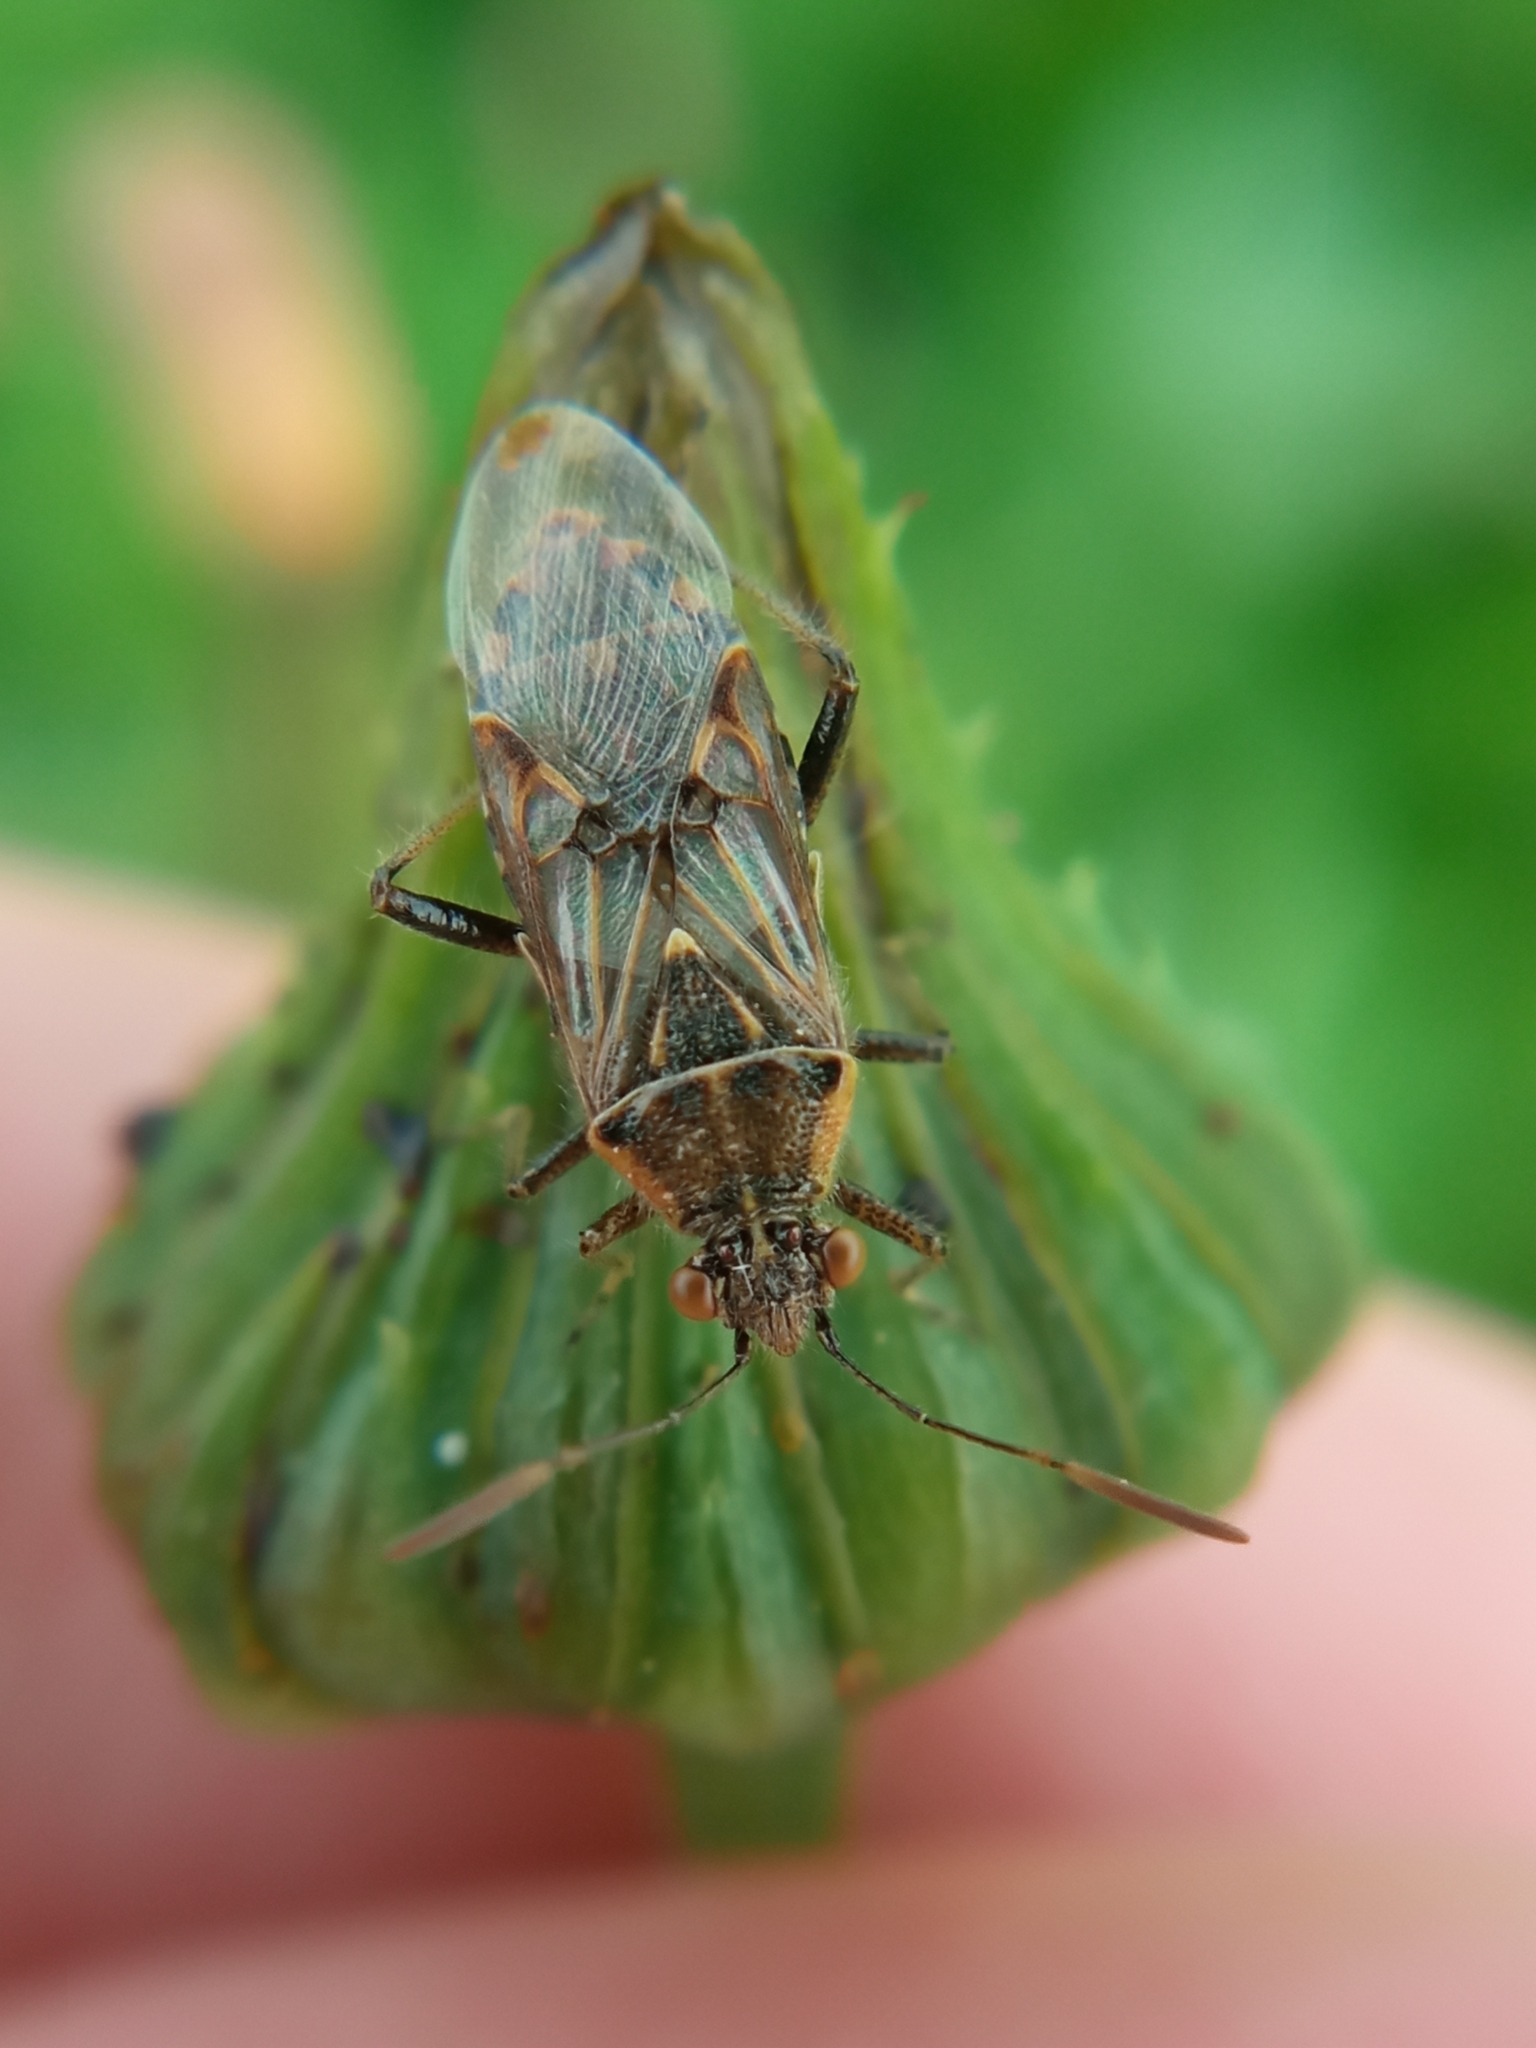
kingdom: Animalia
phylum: Arthropoda
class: Insecta
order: Hemiptera
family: Rhopalidae
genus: Liorhyssus
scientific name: Liorhyssus hyalinus
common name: Scentless plant bug
